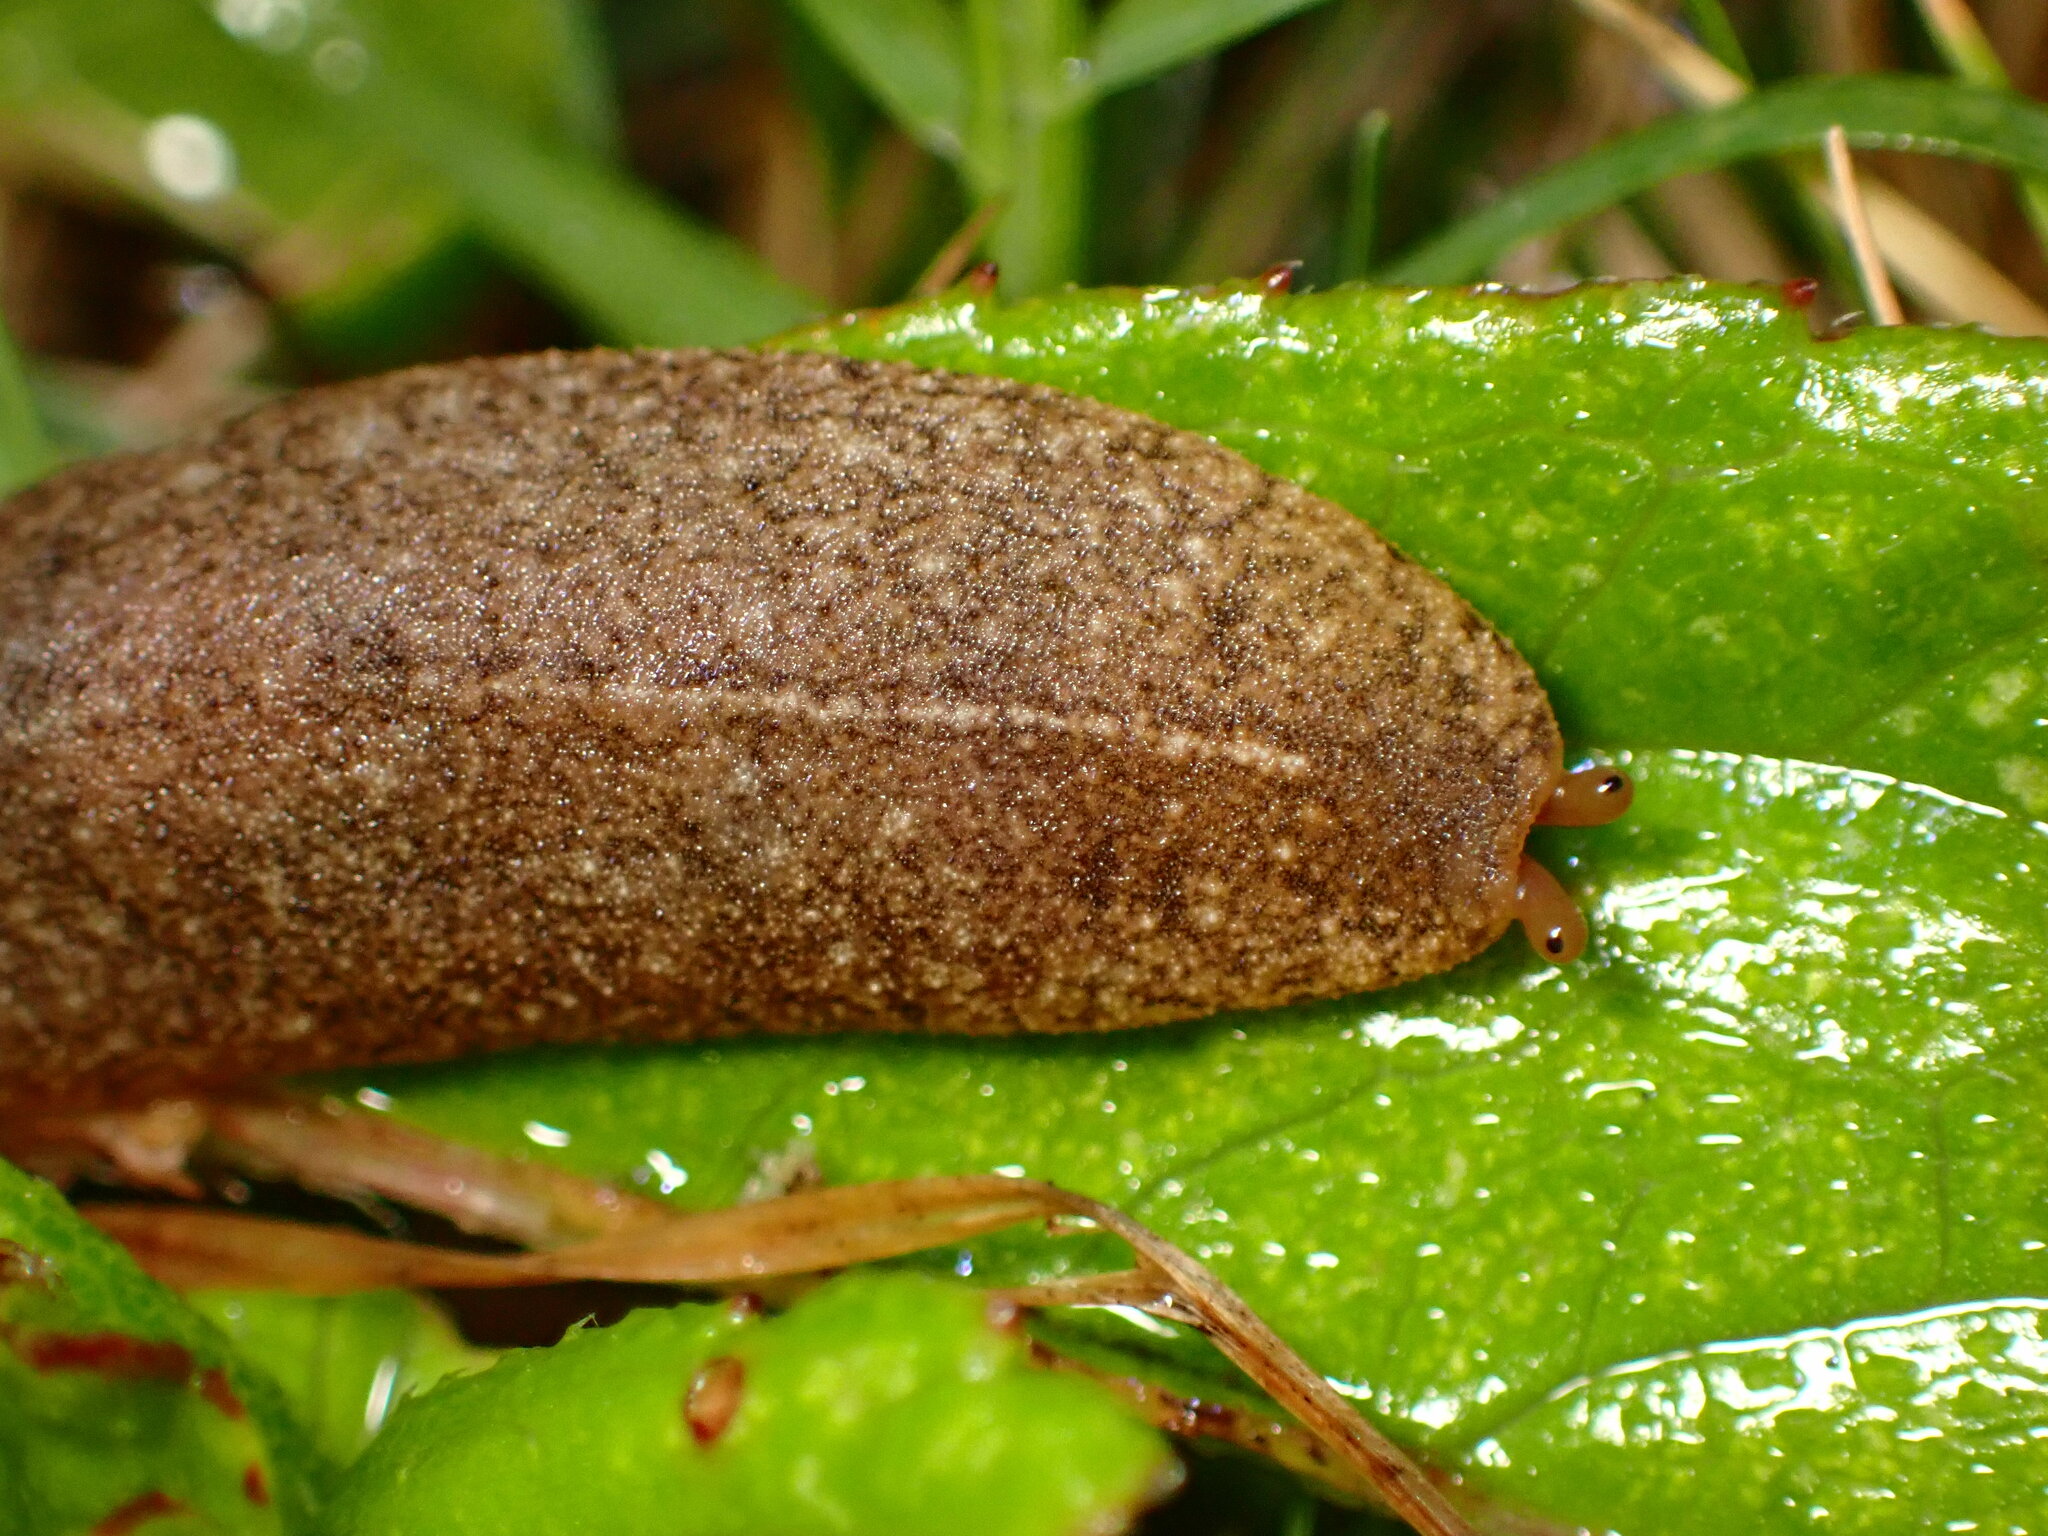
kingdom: Animalia
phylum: Mollusca
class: Gastropoda
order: Systellommatophora
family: Veronicellidae
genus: Veronicella
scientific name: Veronicella cubensis
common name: Two striped slug
